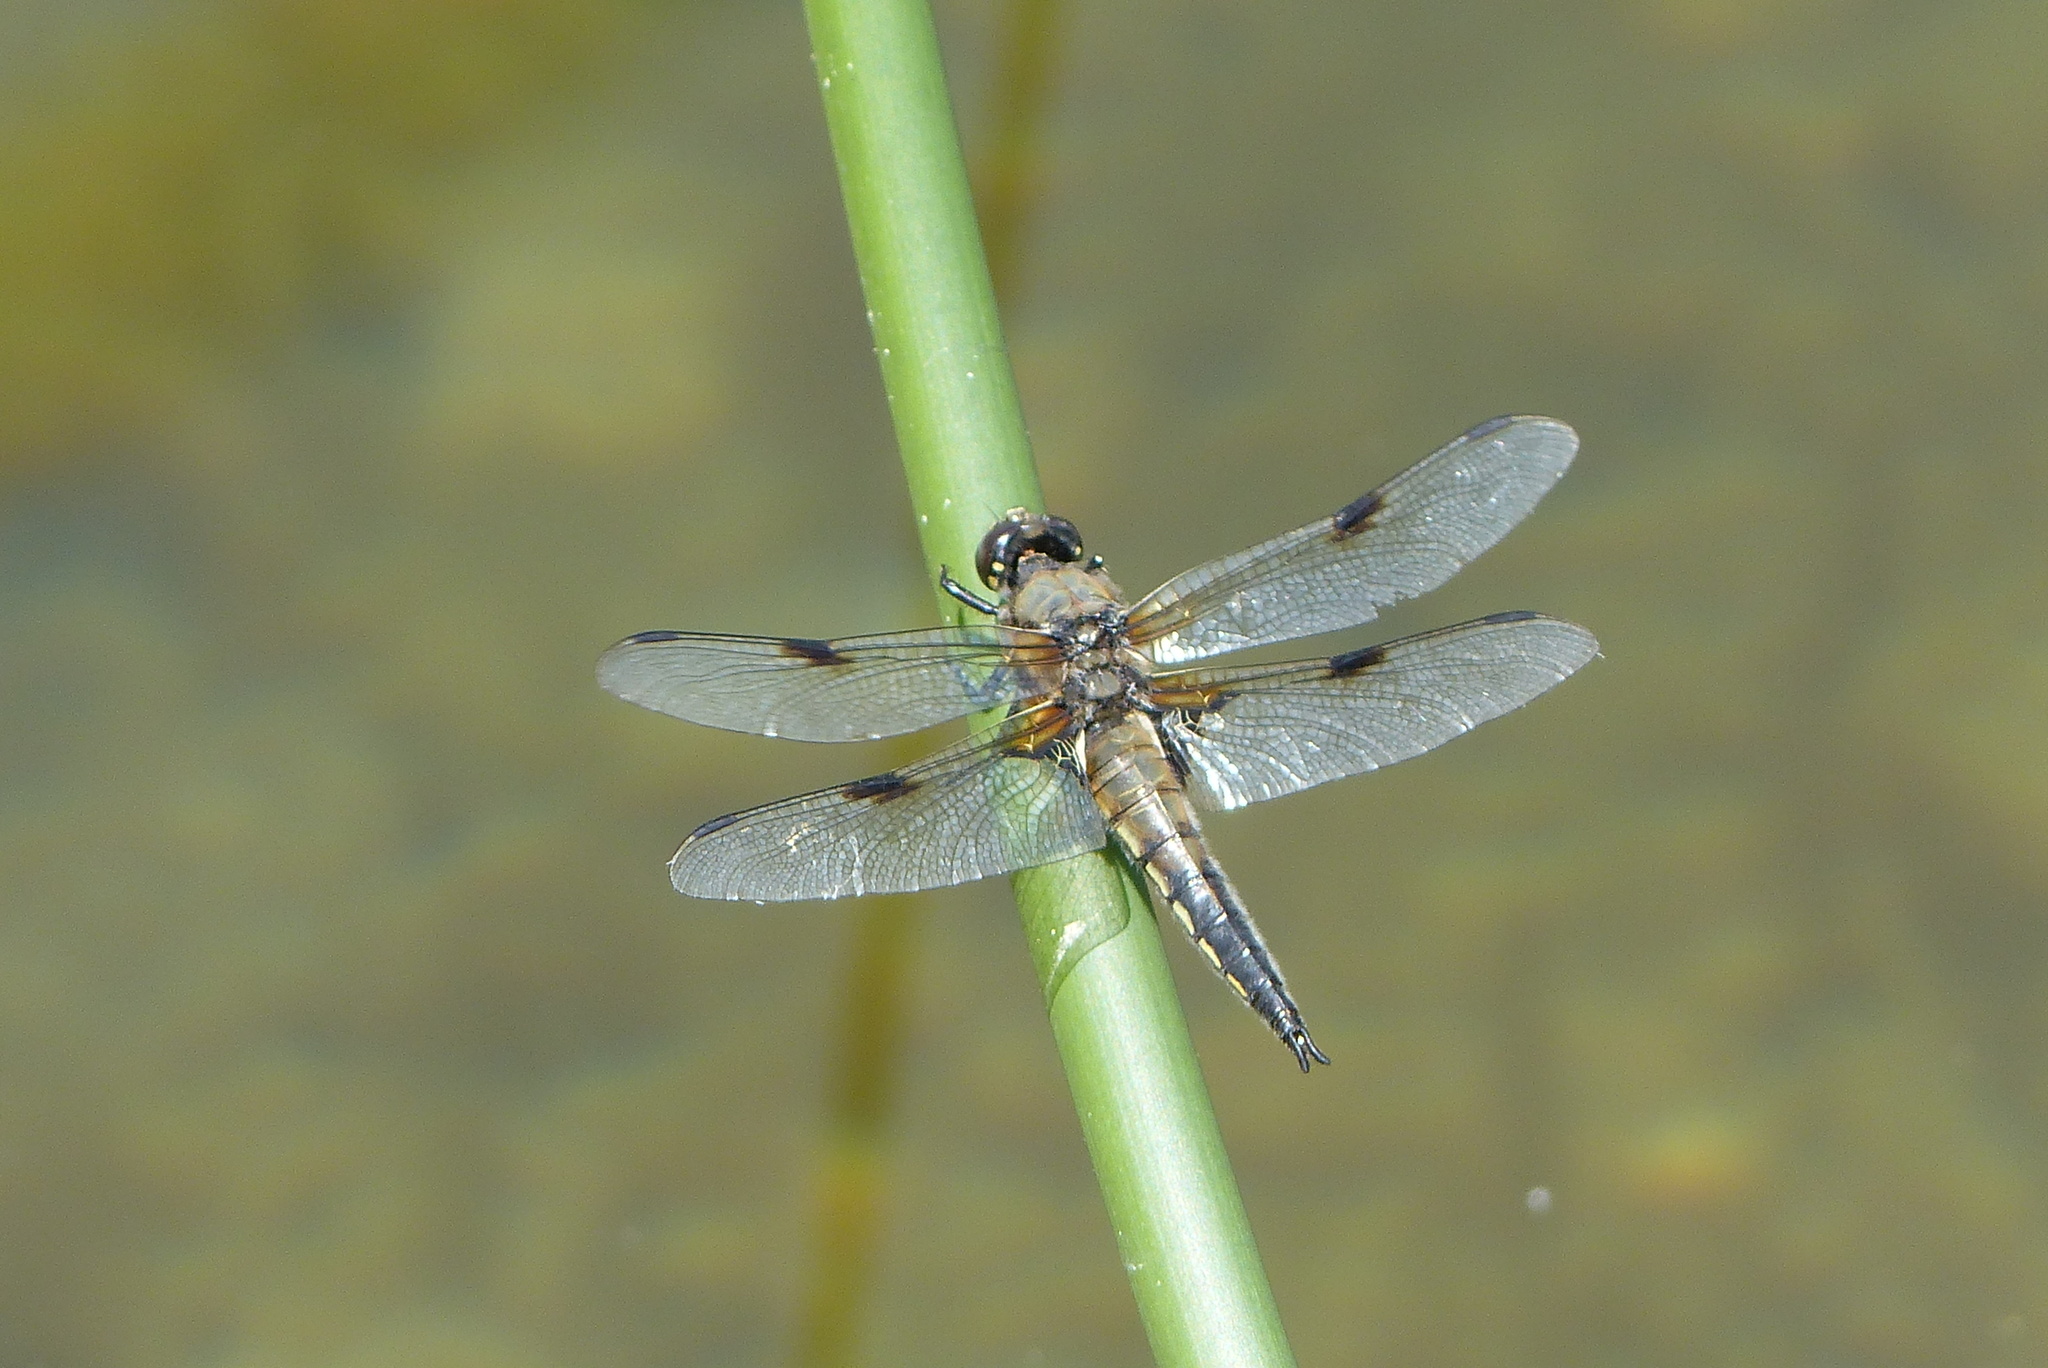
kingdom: Animalia
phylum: Arthropoda
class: Insecta
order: Odonata
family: Libellulidae
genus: Libellula
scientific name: Libellula quadrimaculata
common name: Four-spotted chaser
